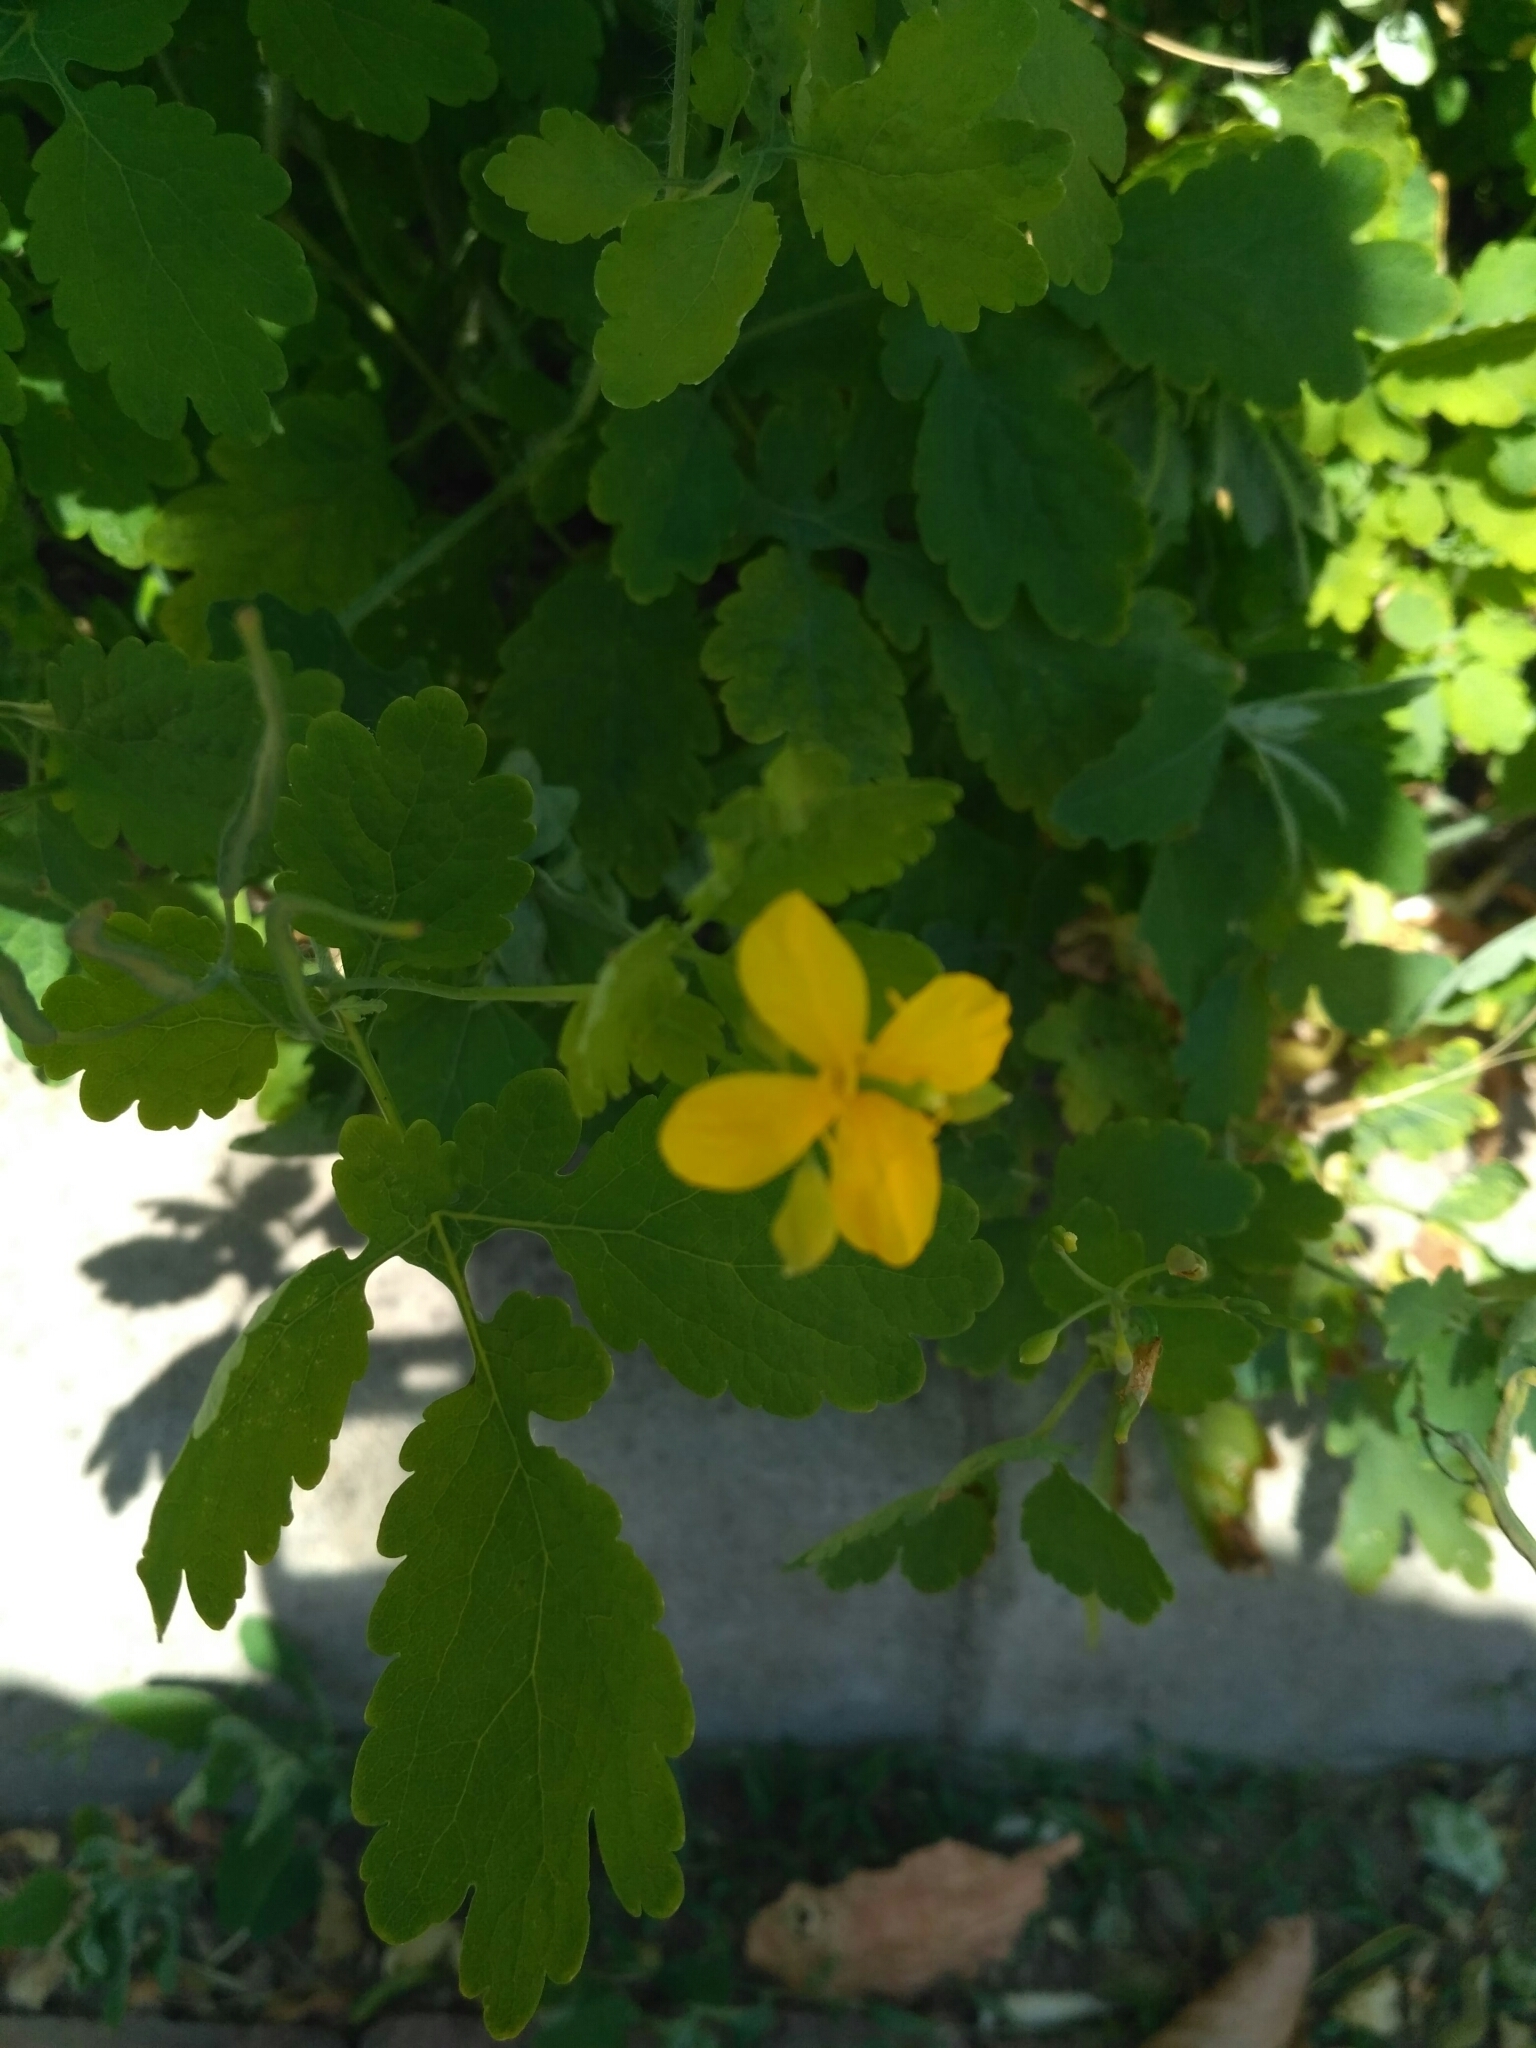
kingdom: Plantae
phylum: Tracheophyta
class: Magnoliopsida
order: Ranunculales
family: Papaveraceae
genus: Chelidonium
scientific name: Chelidonium majus
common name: Greater celandine
